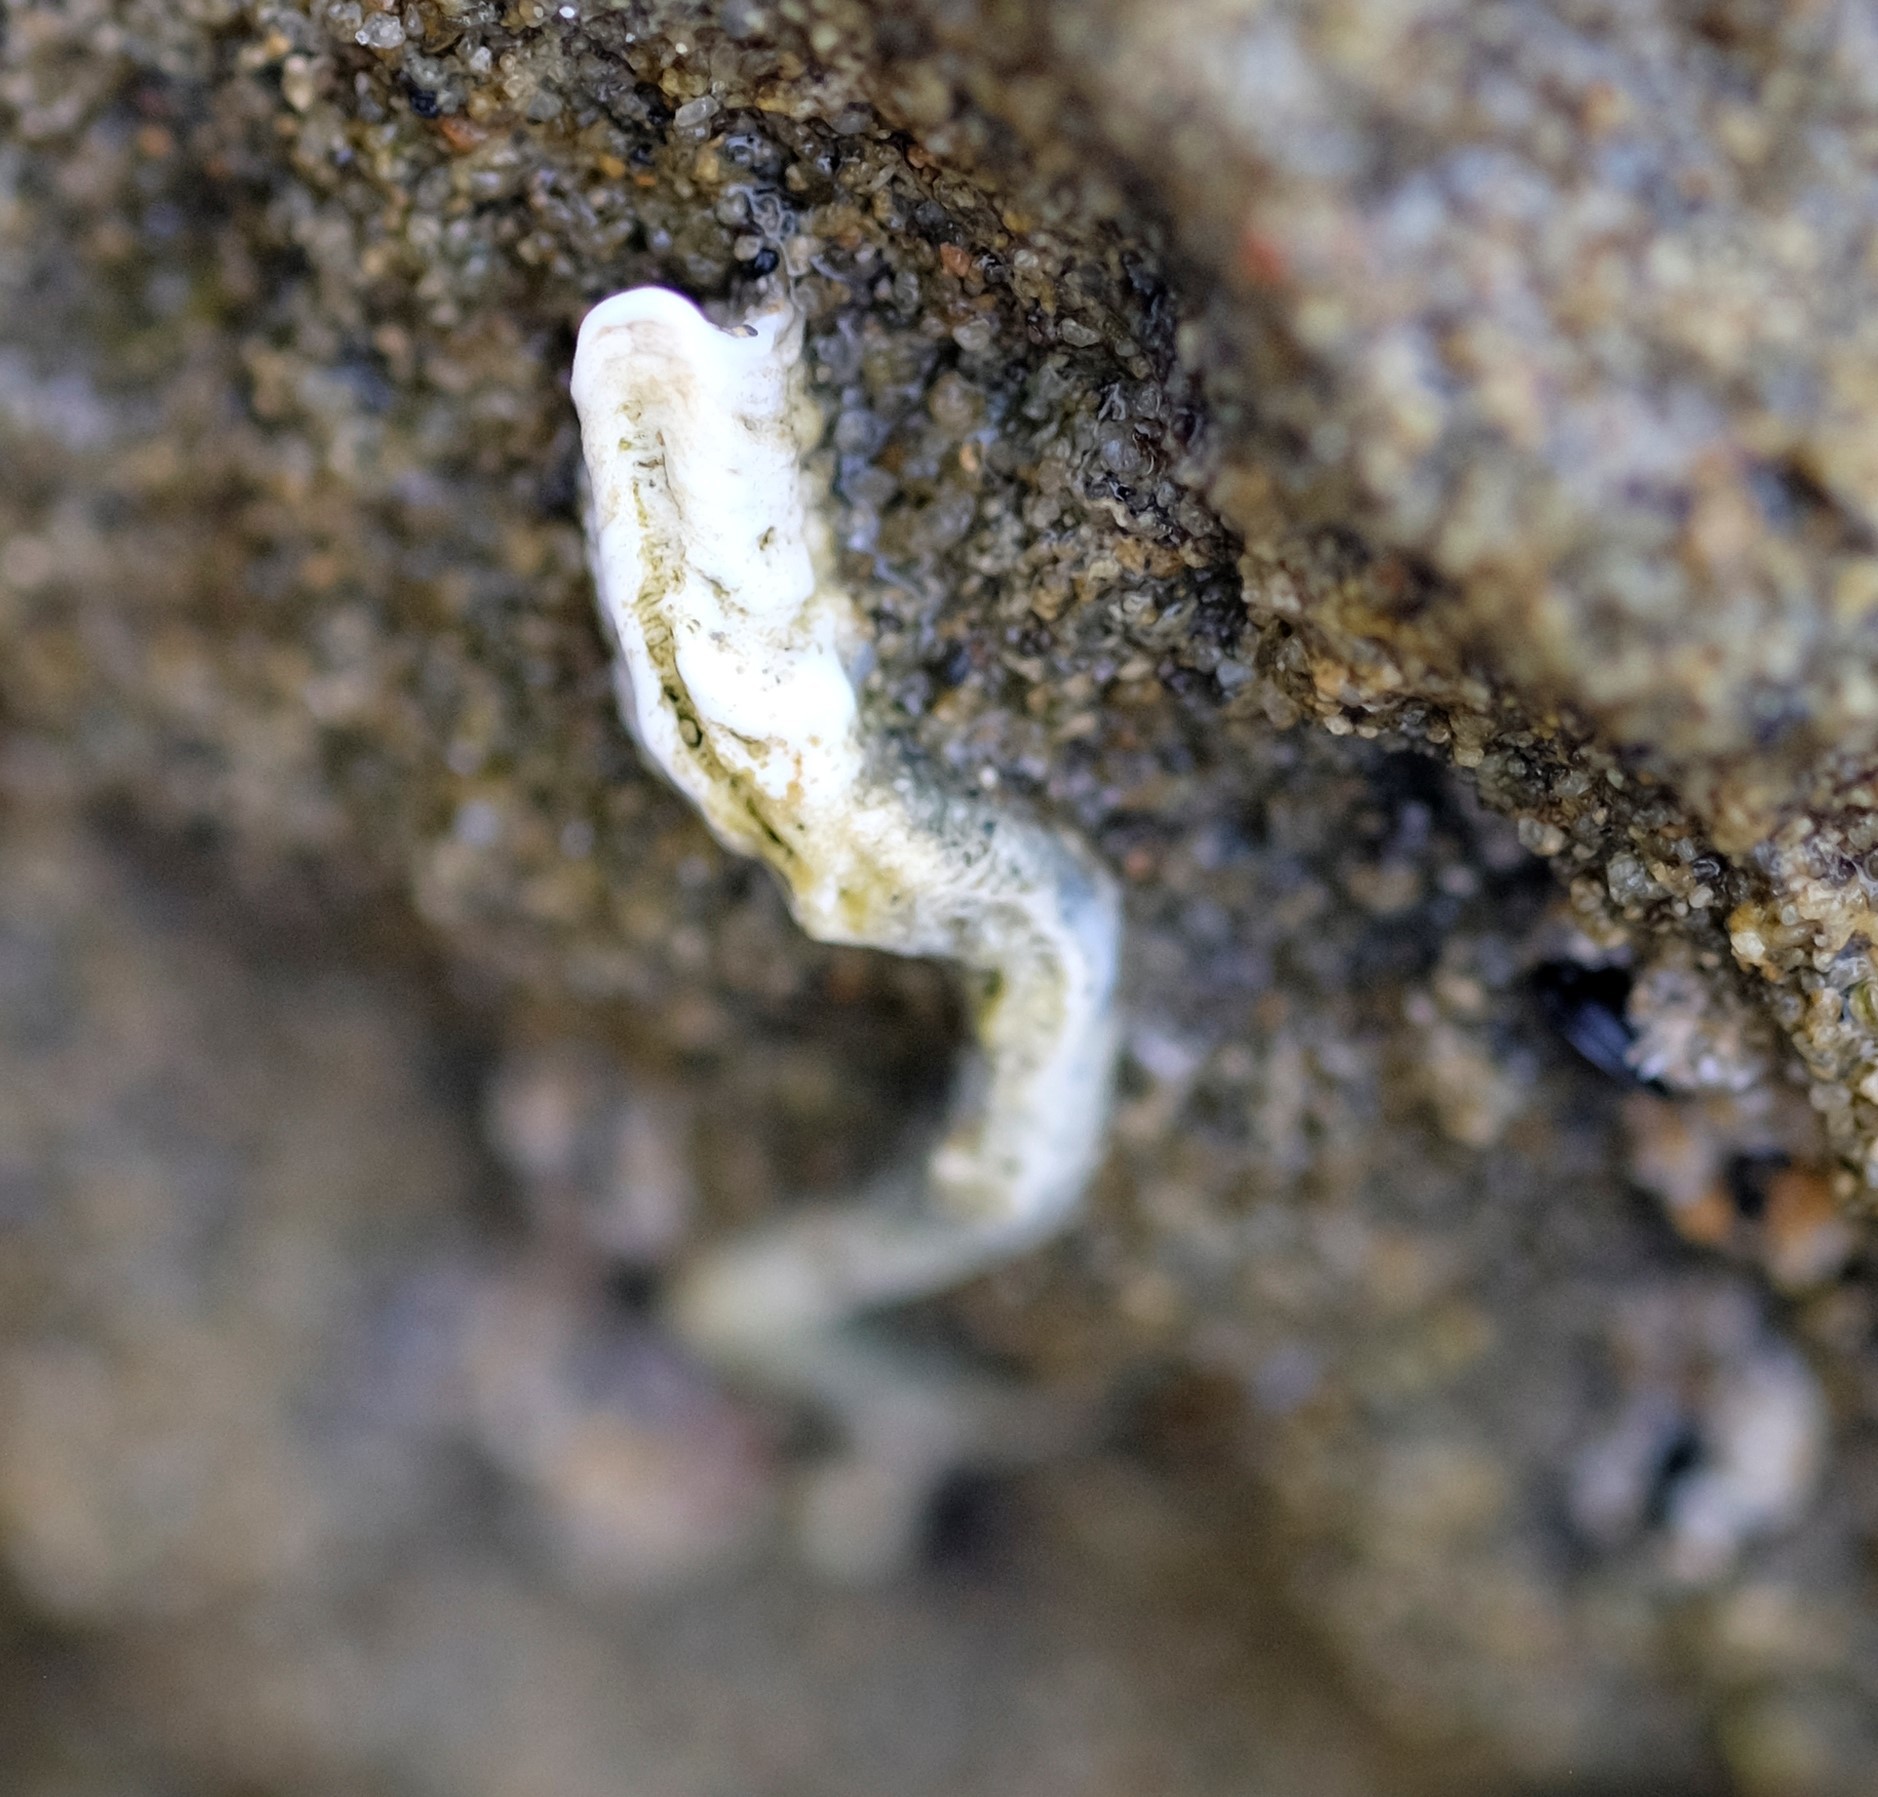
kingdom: Animalia
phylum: Annelida
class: Polychaeta
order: Sabellida
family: Serpulidae
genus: Galeolaria
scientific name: Galeolaria caespitosa
